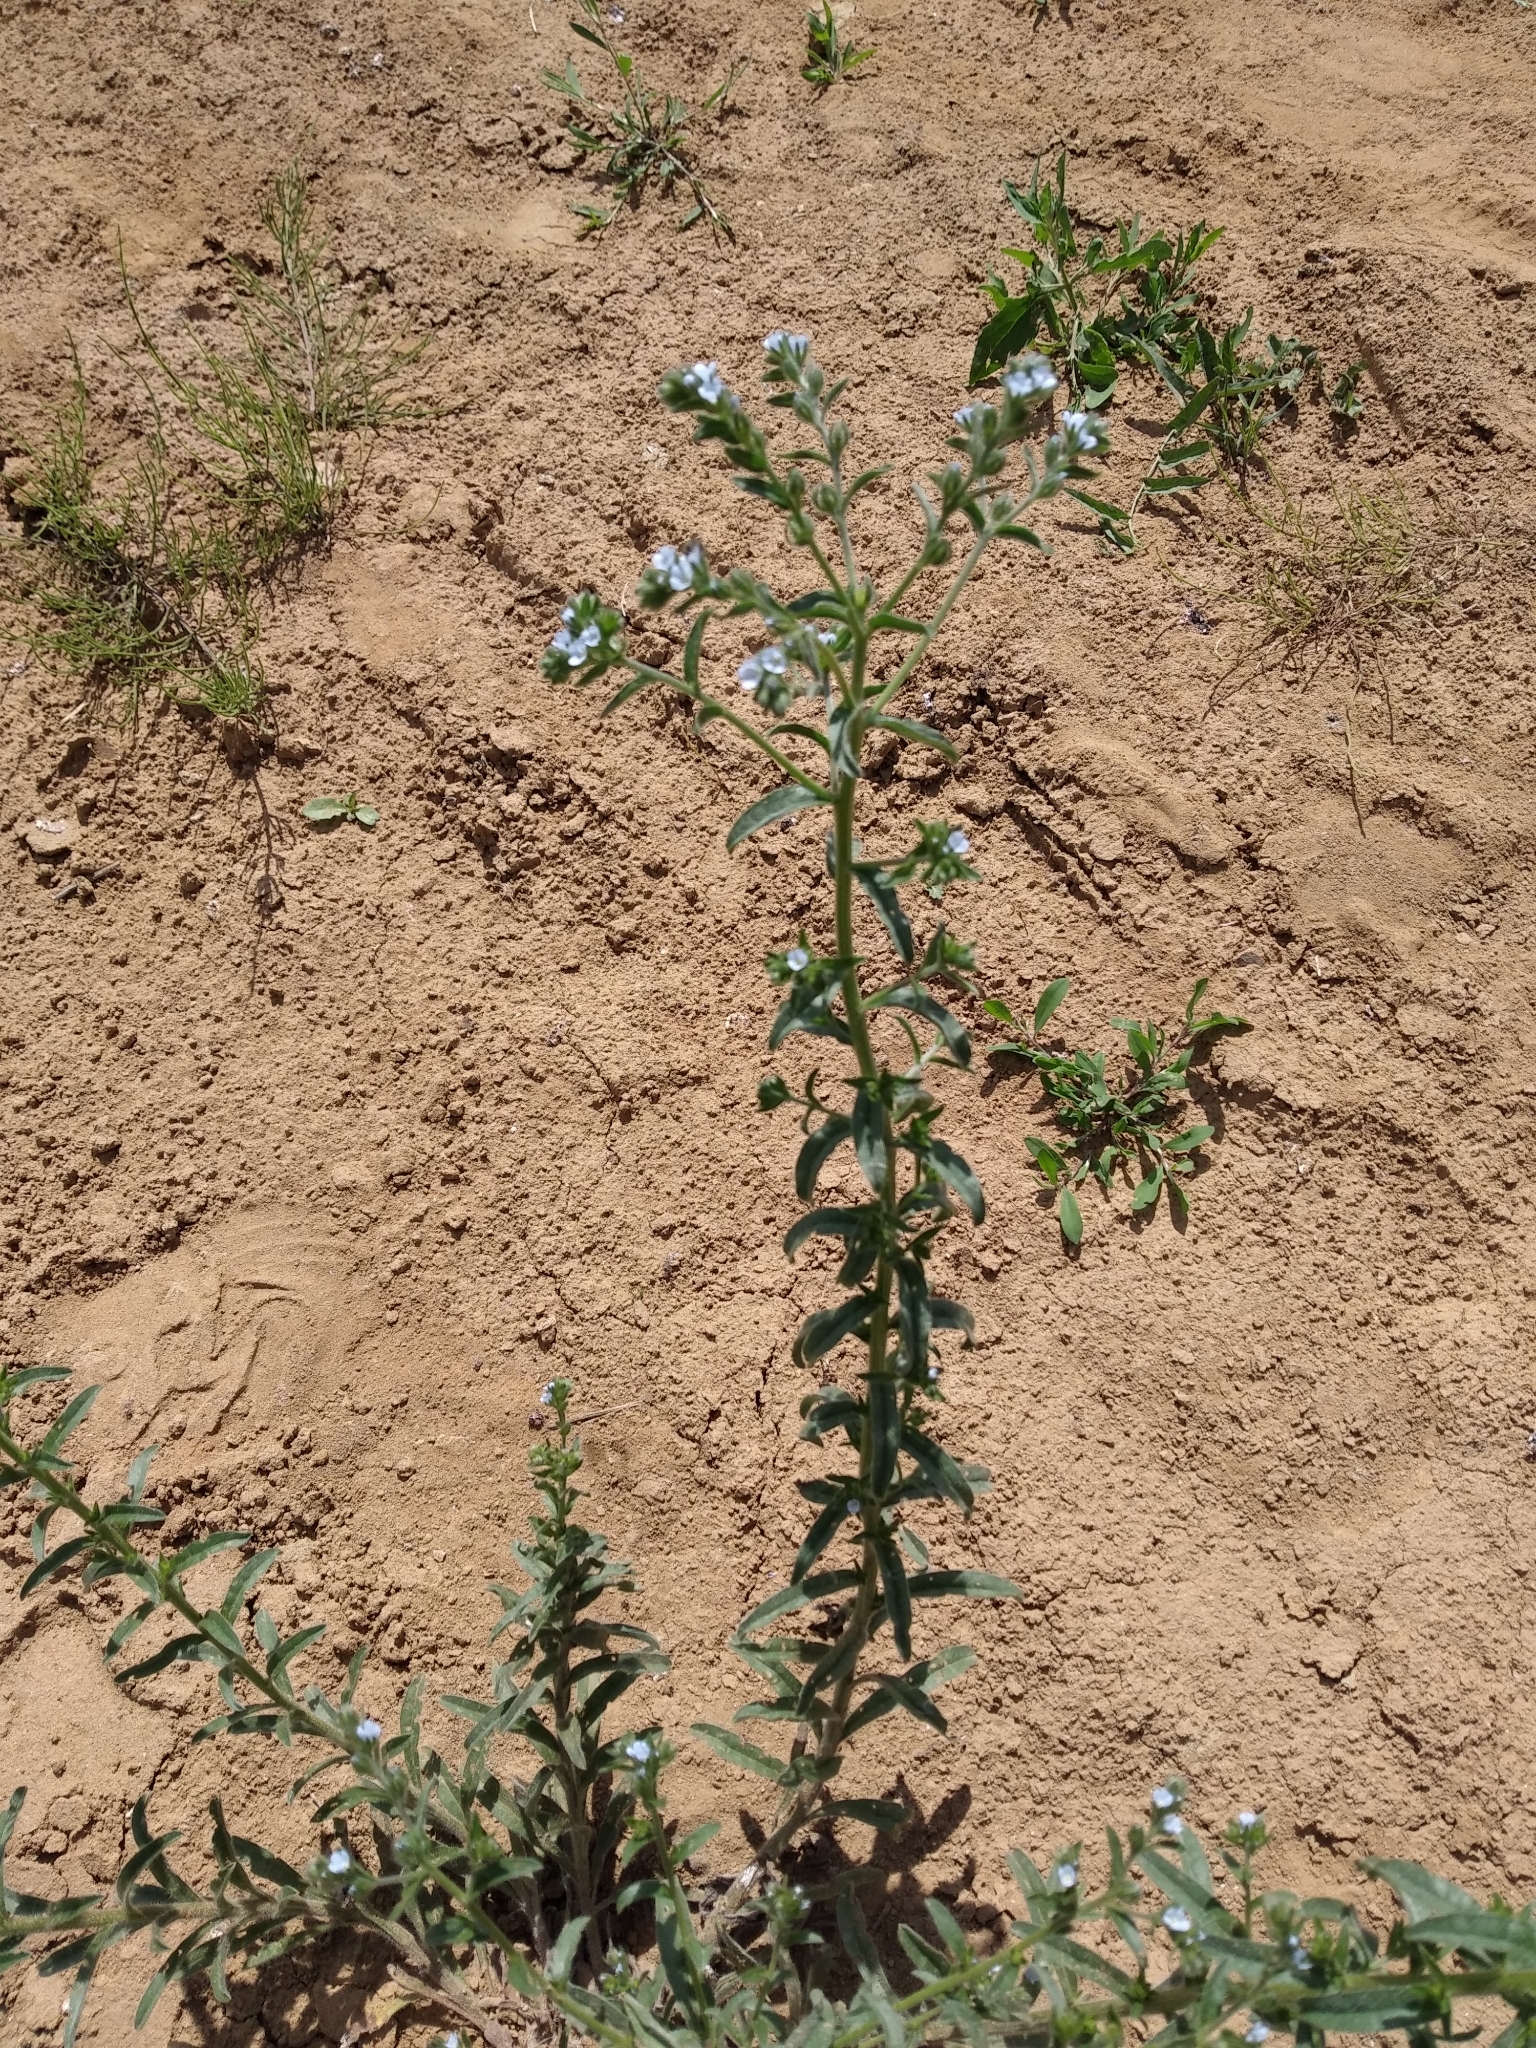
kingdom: Plantae
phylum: Tracheophyta
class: Magnoliopsida
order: Boraginales
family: Boraginaceae
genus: Lappula
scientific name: Lappula squarrosa
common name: European stickseed
